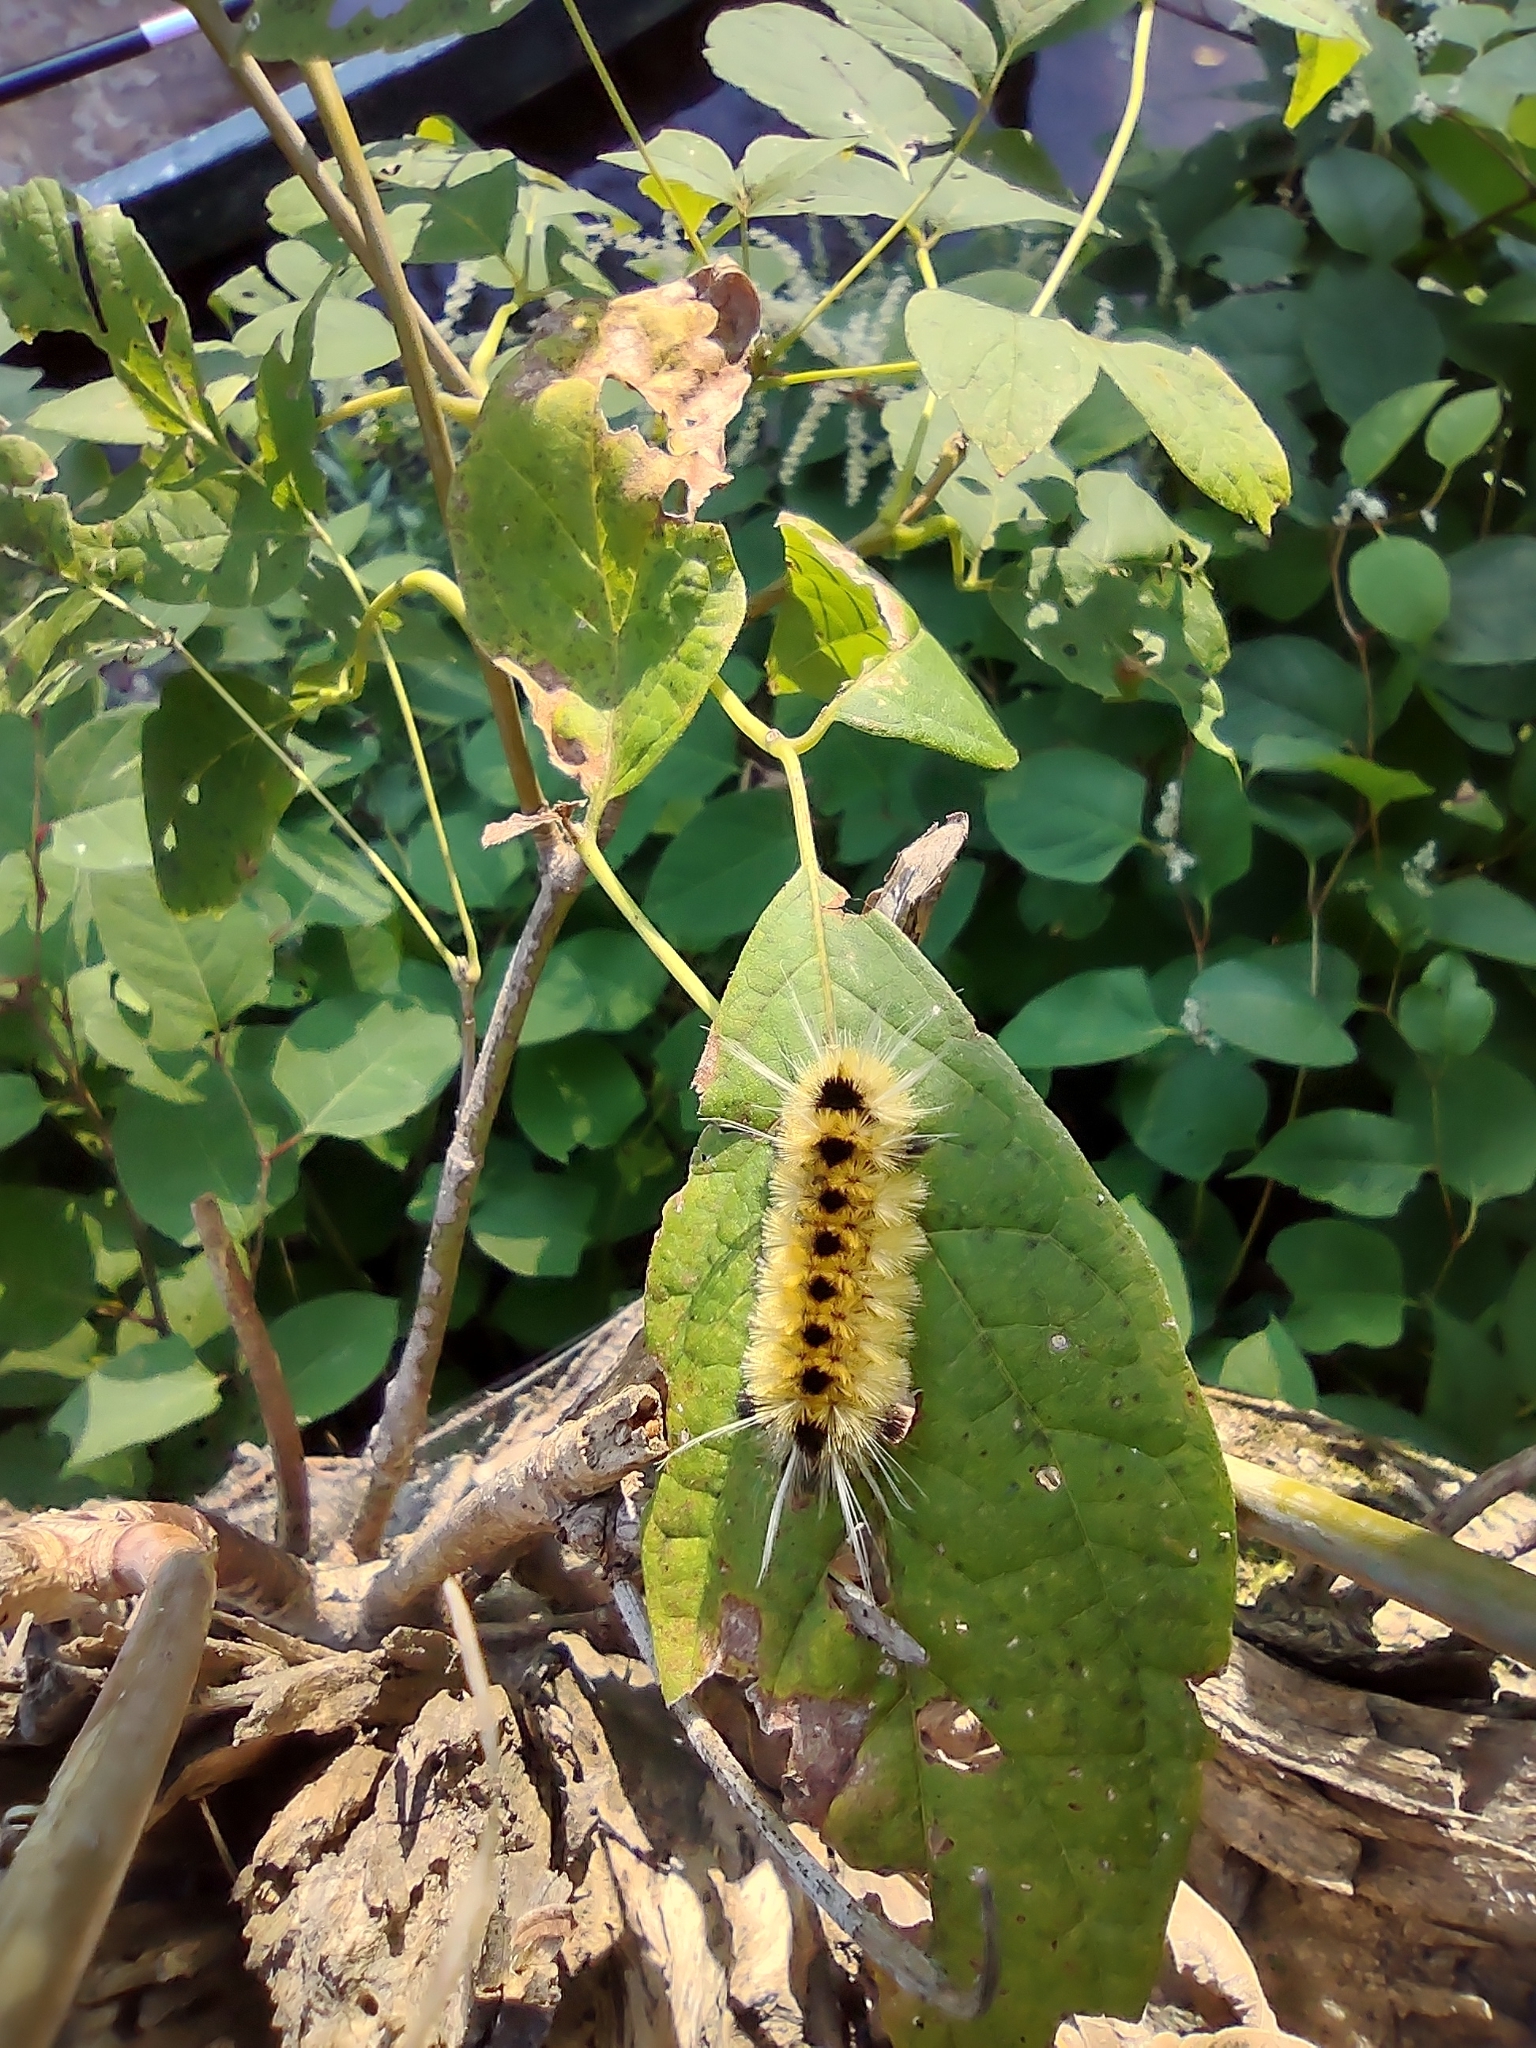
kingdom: Animalia
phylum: Arthropoda
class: Insecta
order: Lepidoptera
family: Erebidae
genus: Lophocampa
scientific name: Lophocampa maculata
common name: Spotted tussock moth
